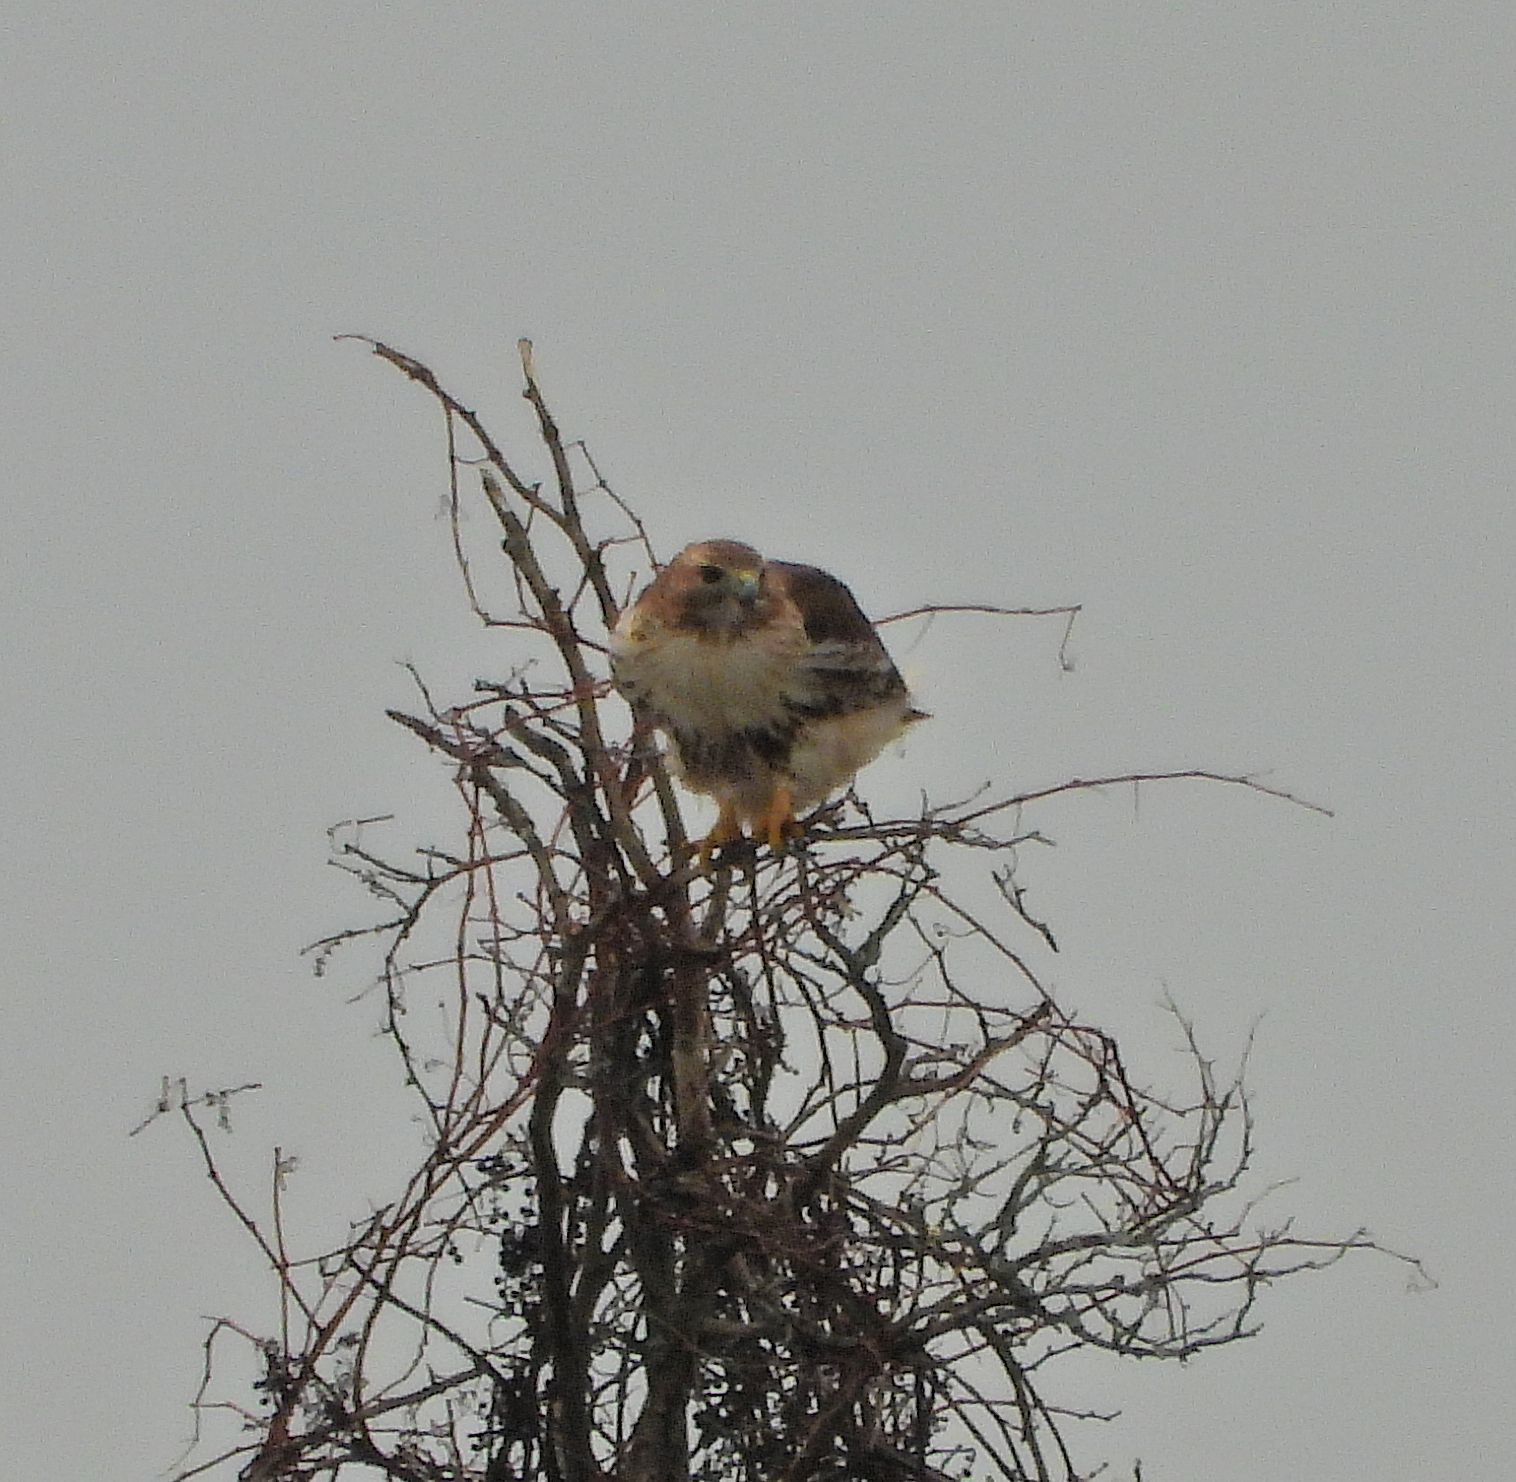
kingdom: Animalia
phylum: Chordata
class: Aves
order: Accipitriformes
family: Accipitridae
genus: Buteo
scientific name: Buteo jamaicensis
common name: Red-tailed hawk
